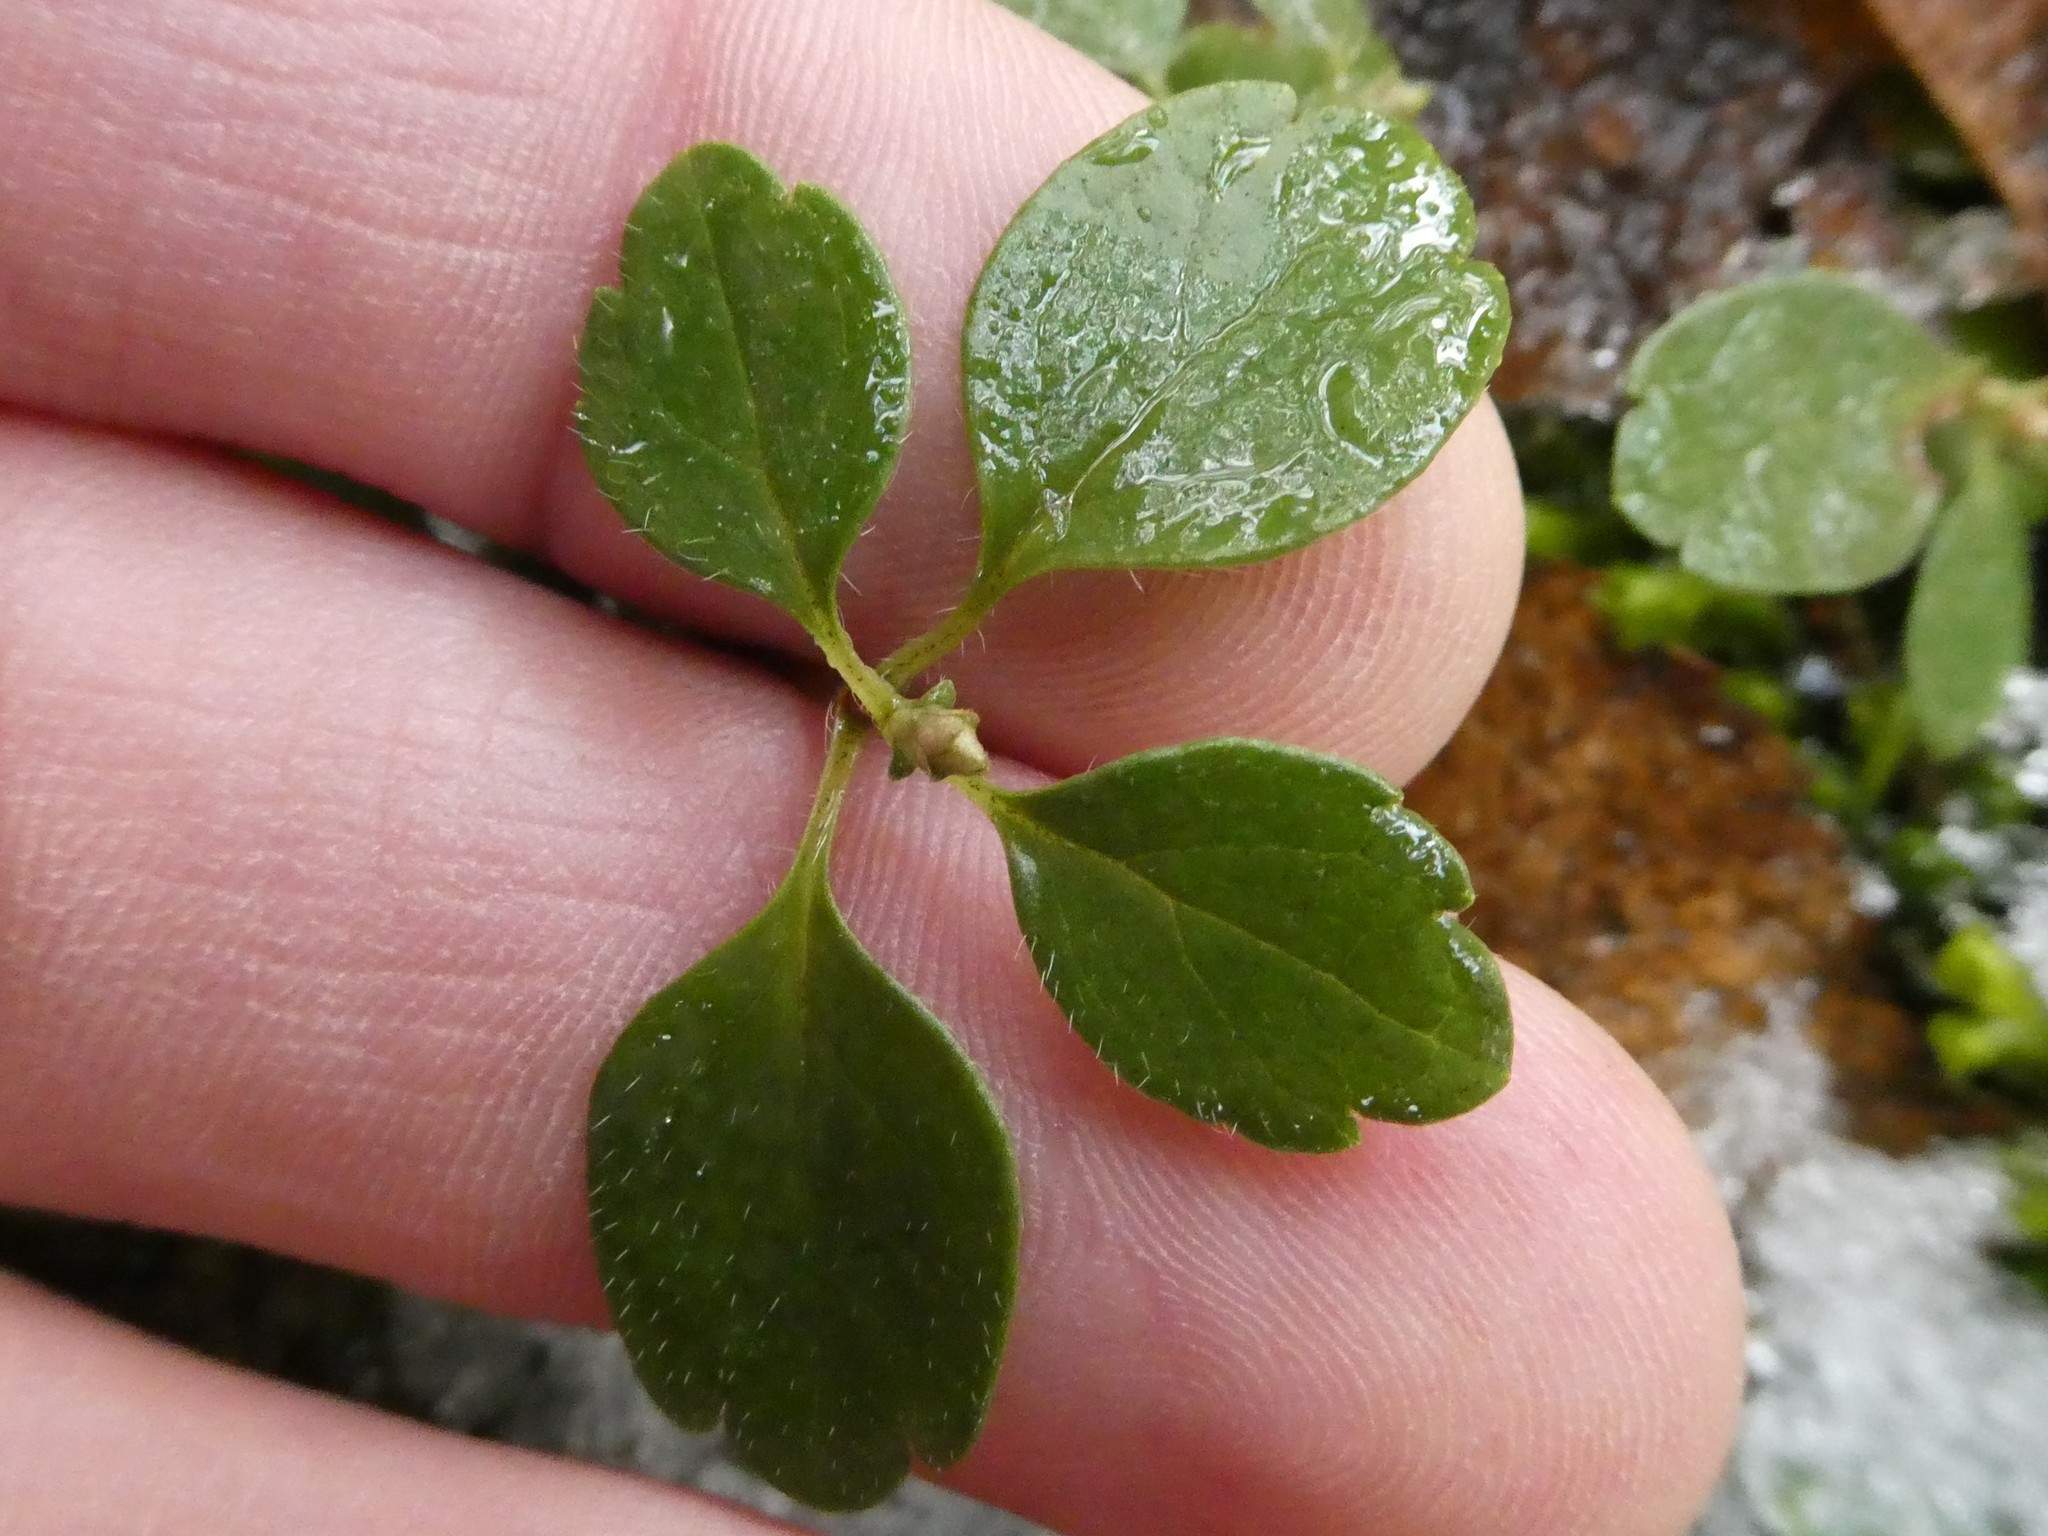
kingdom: Plantae
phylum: Tracheophyta
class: Magnoliopsida
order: Dipsacales
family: Caprifoliaceae
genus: Linnaea
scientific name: Linnaea borealis
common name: Twinflower
